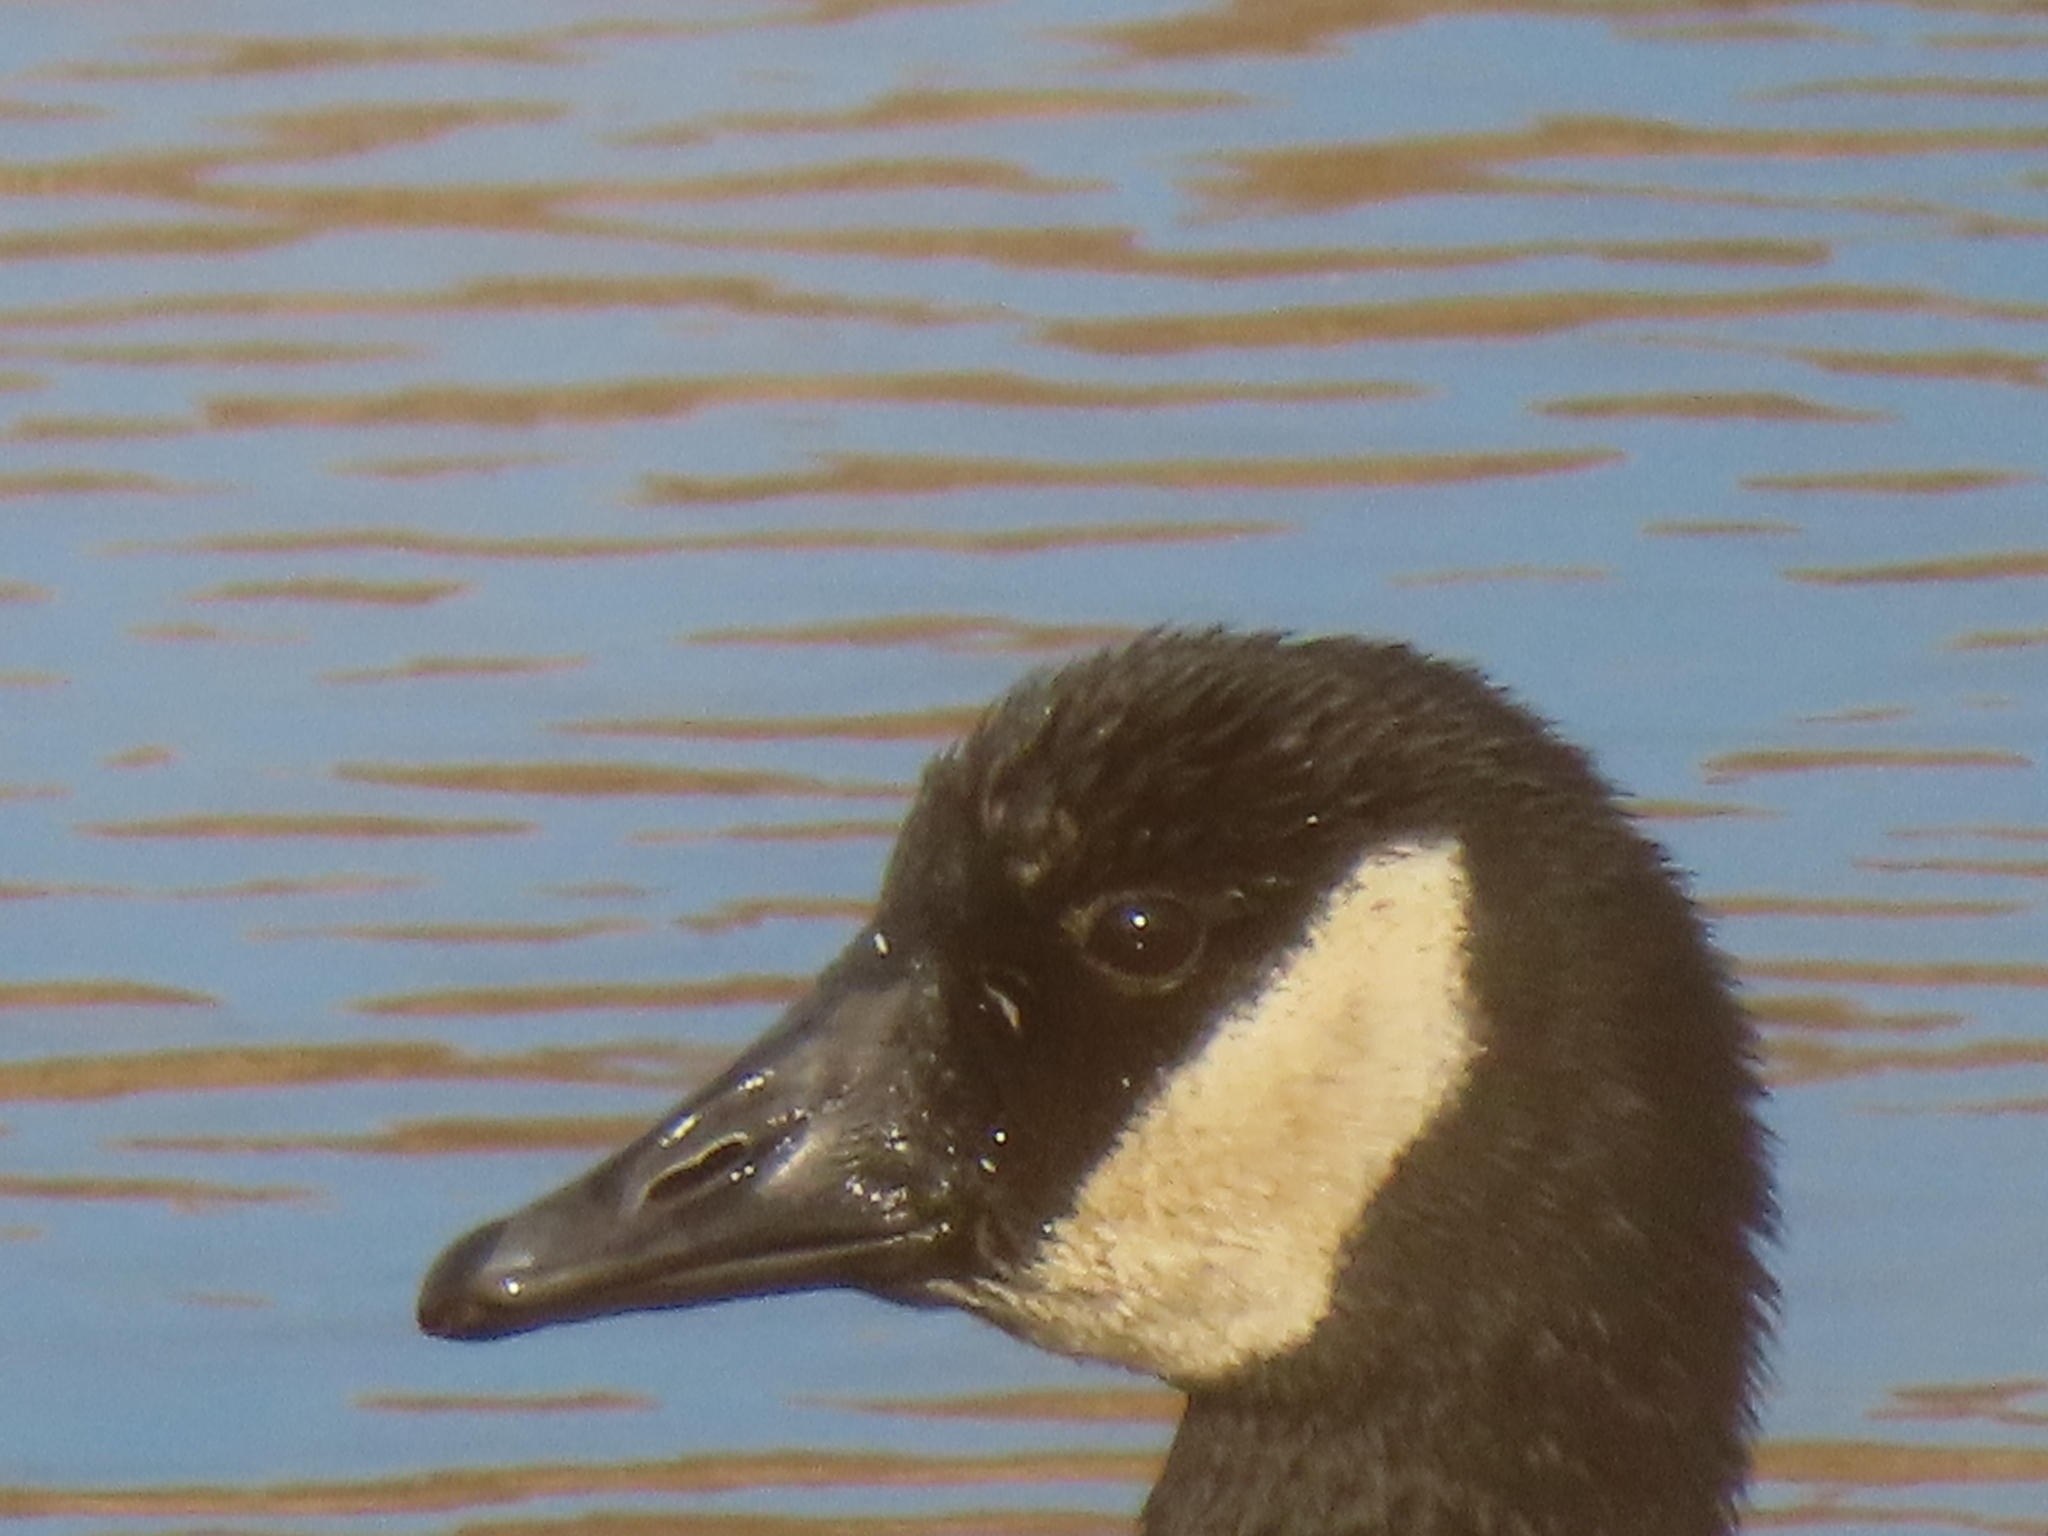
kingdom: Animalia
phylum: Chordata
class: Aves
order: Anseriformes
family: Anatidae
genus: Branta
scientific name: Branta canadensis
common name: Canada goose
